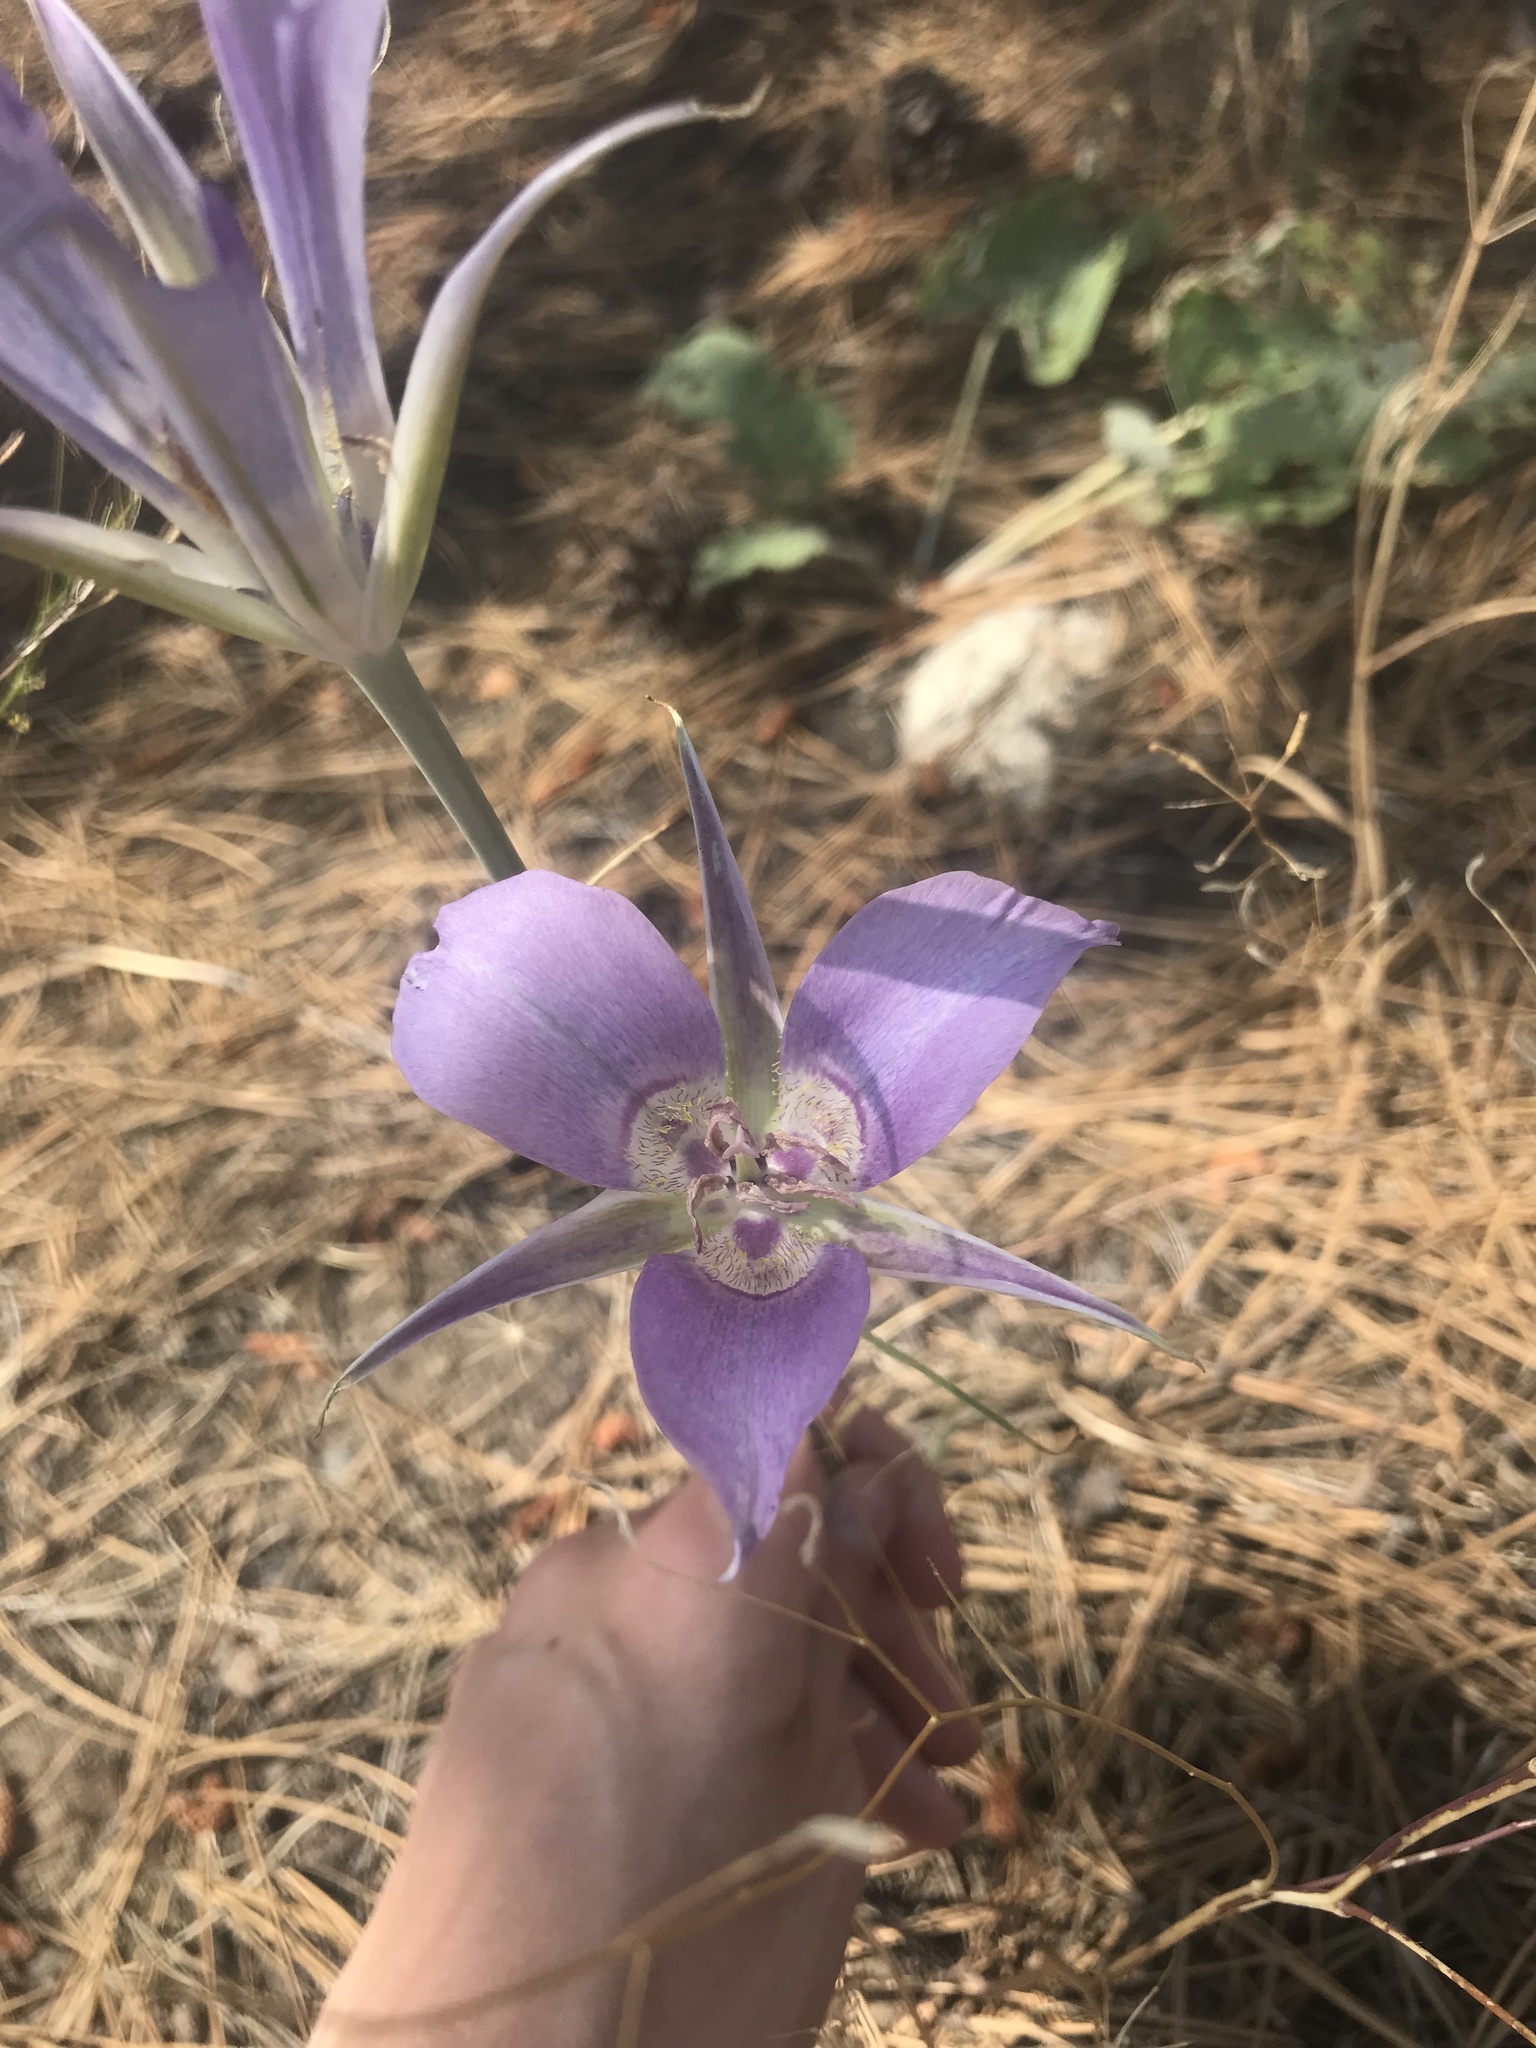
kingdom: Plantae
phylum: Tracheophyta
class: Liliopsida
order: Liliales
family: Liliaceae
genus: Calochortus
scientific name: Calochortus macrocarpus
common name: Green-band mariposa lily
